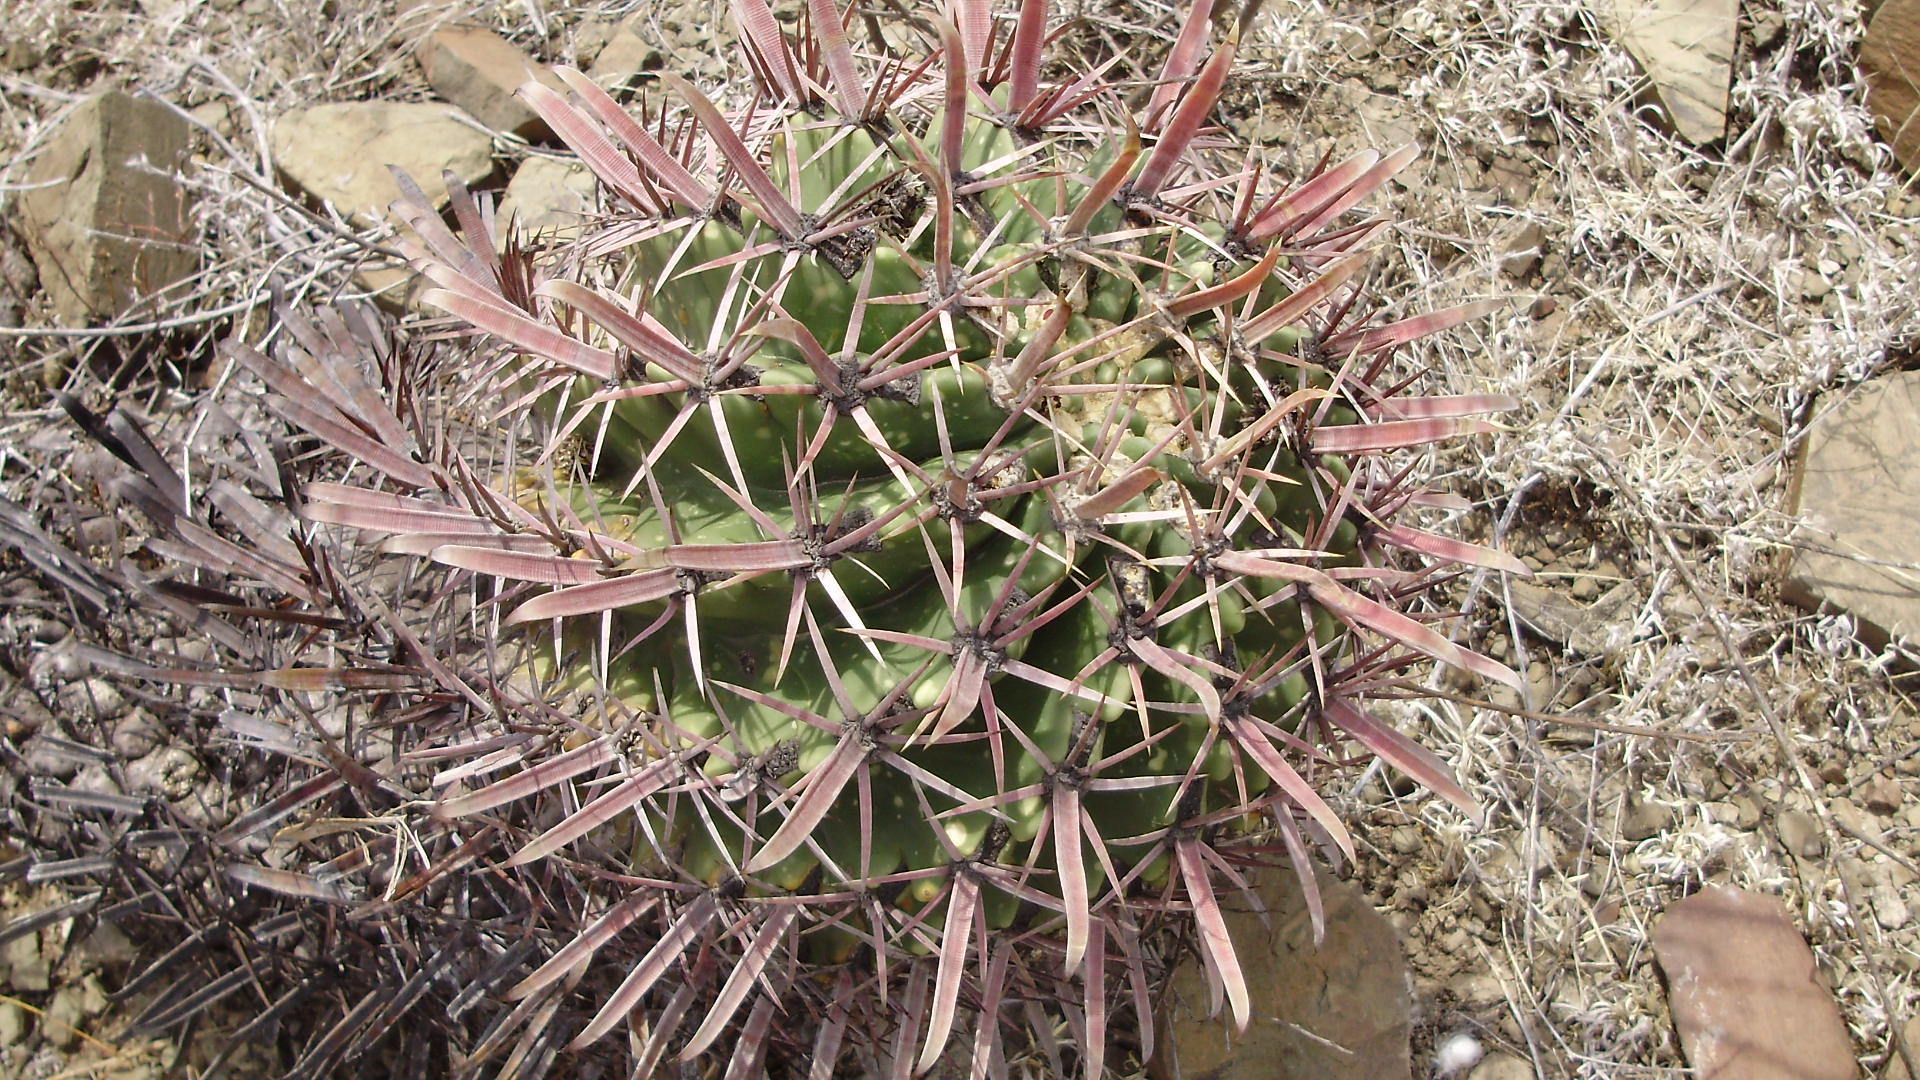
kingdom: Plantae
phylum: Tracheophyta
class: Magnoliopsida
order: Caryophyllales
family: Cactaceae
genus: Ferocactus
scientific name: Ferocactus latispinus
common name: Devil's-tongue cactus
